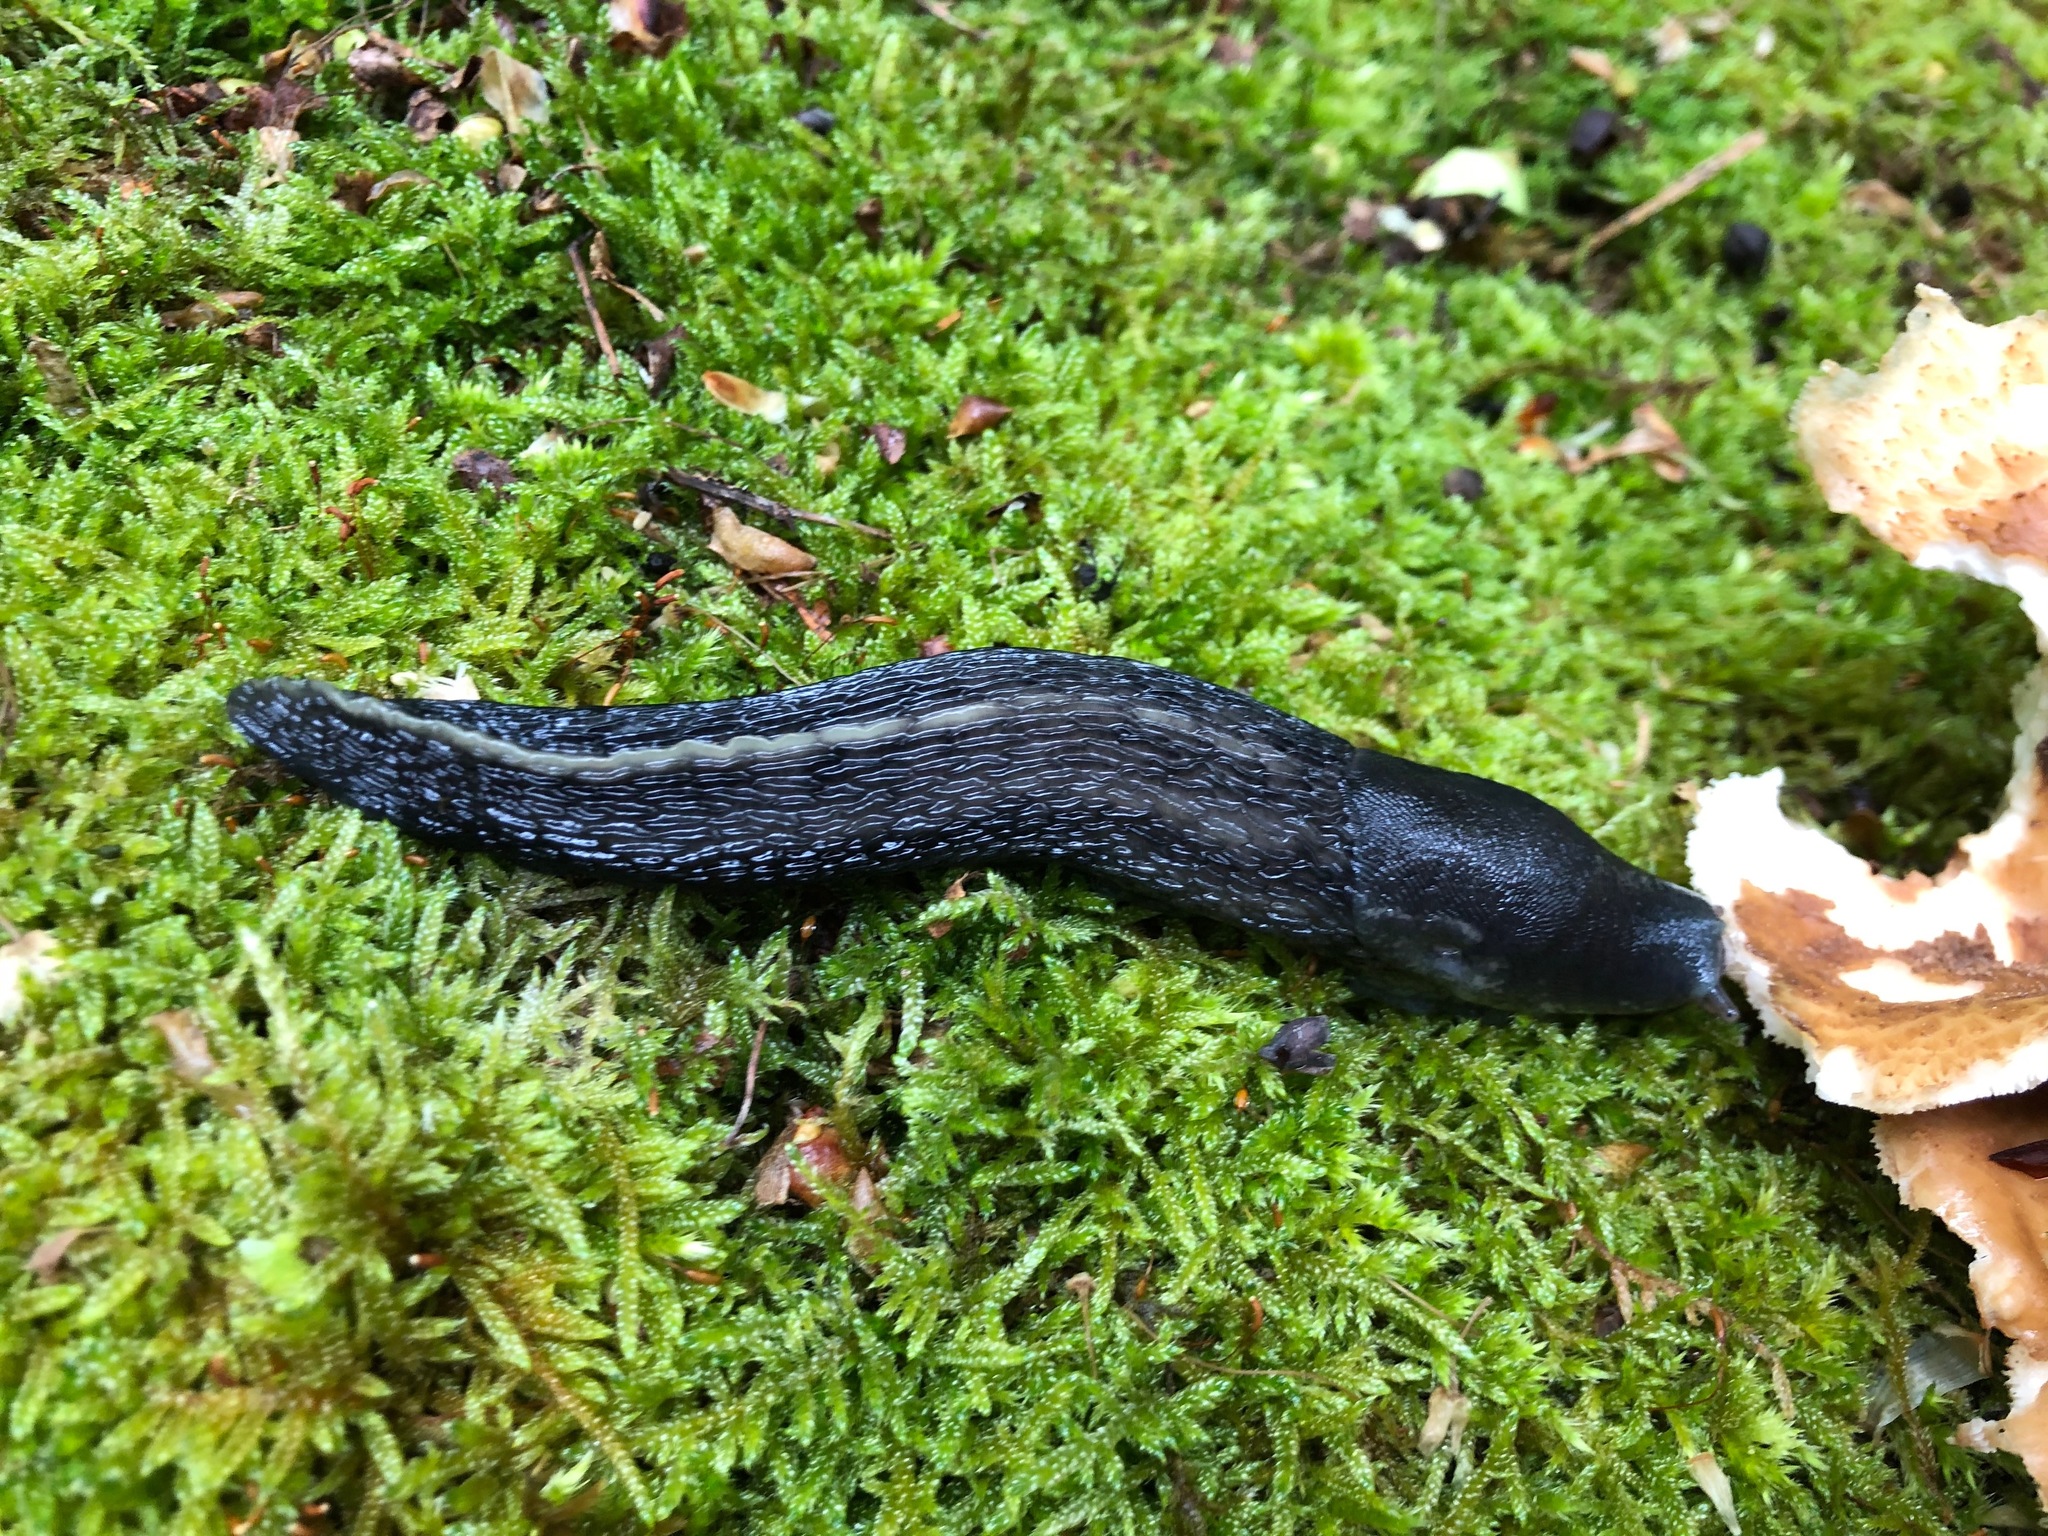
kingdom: Animalia
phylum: Mollusca
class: Gastropoda
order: Stylommatophora
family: Limacidae
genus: Limax
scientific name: Limax cinereoniger
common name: Ash-black slug
